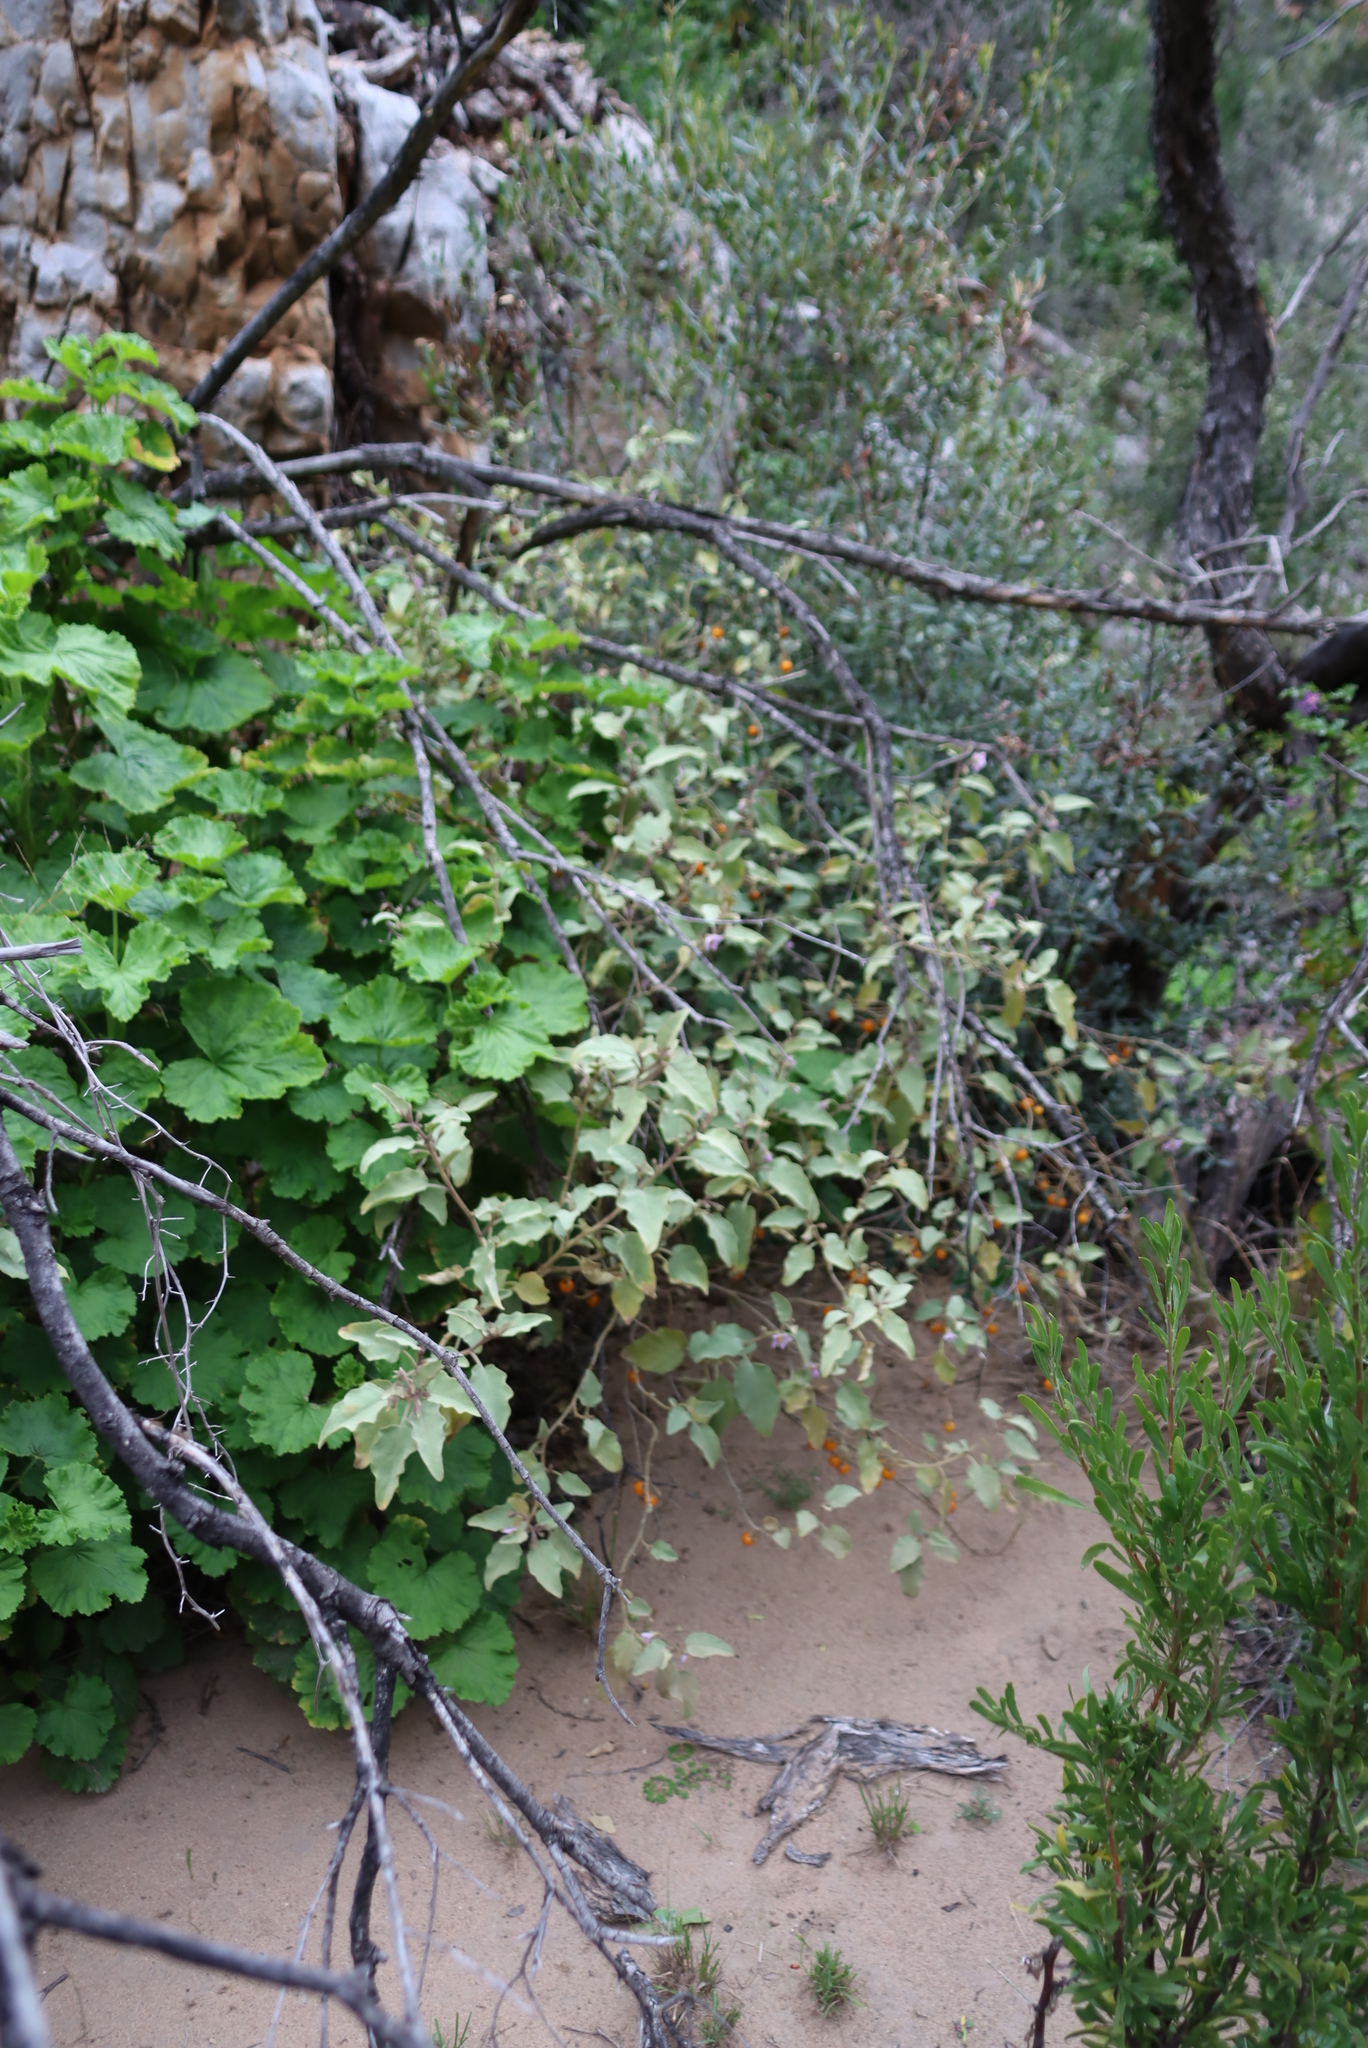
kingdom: Plantae
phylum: Tracheophyta
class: Magnoliopsida
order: Solanales
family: Solanaceae
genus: Solanum
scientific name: Solanum tomentosum
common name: Wild aubergine
